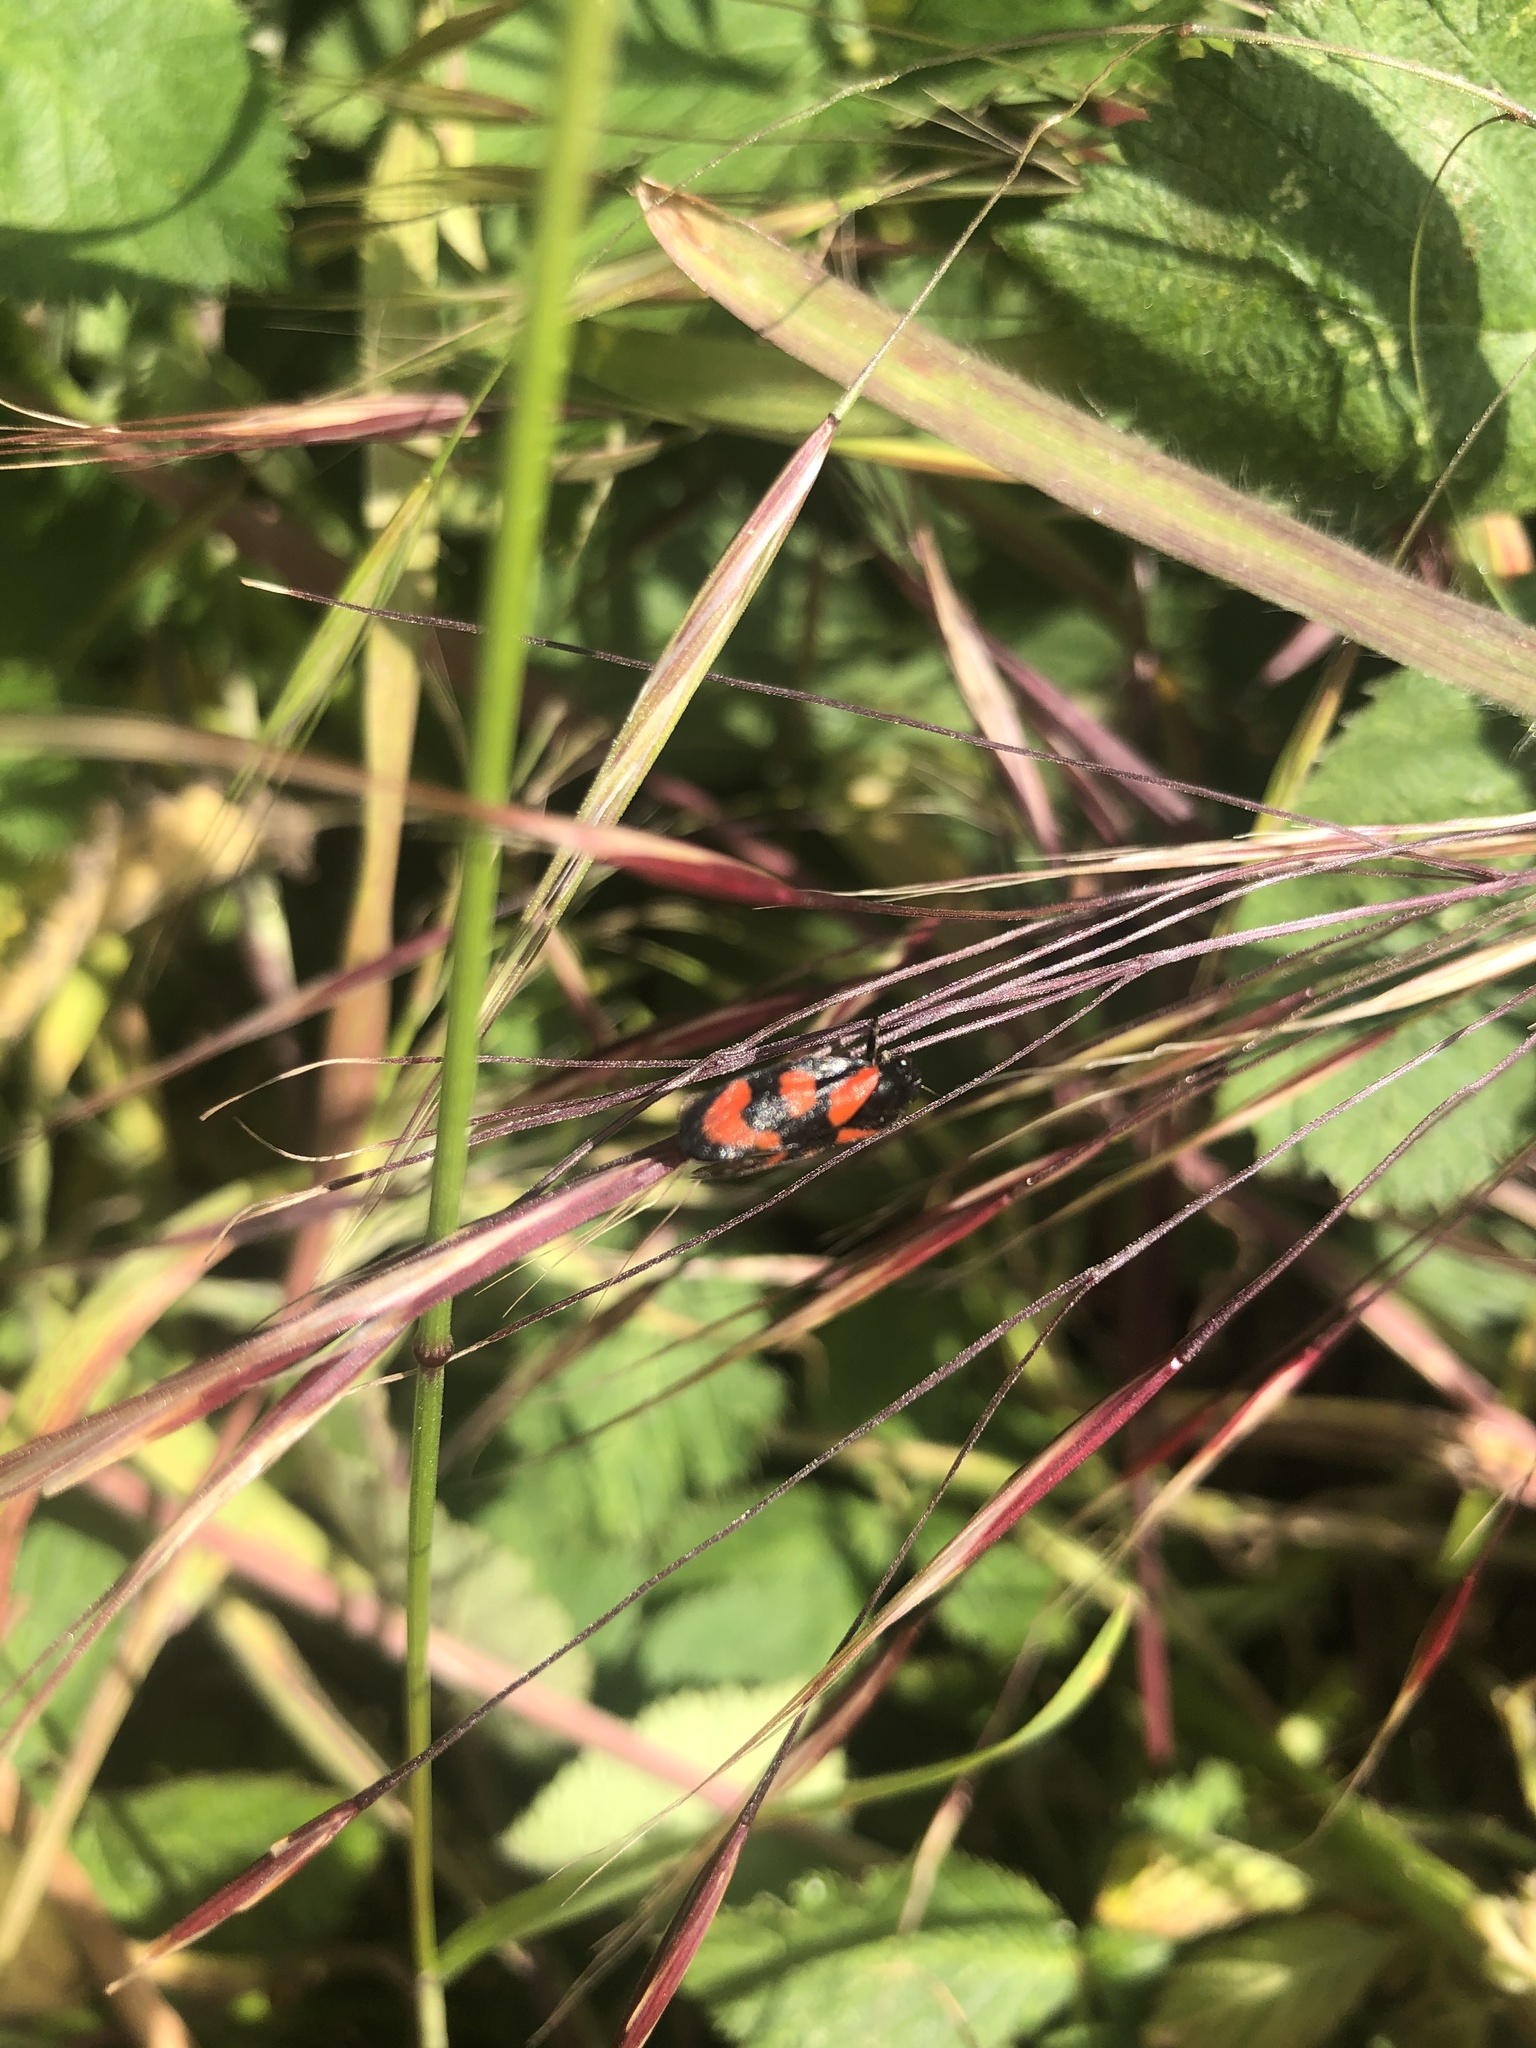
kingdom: Animalia
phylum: Arthropoda
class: Insecta
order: Hemiptera
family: Cercopidae
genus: Cercopis
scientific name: Cercopis vulnerata
